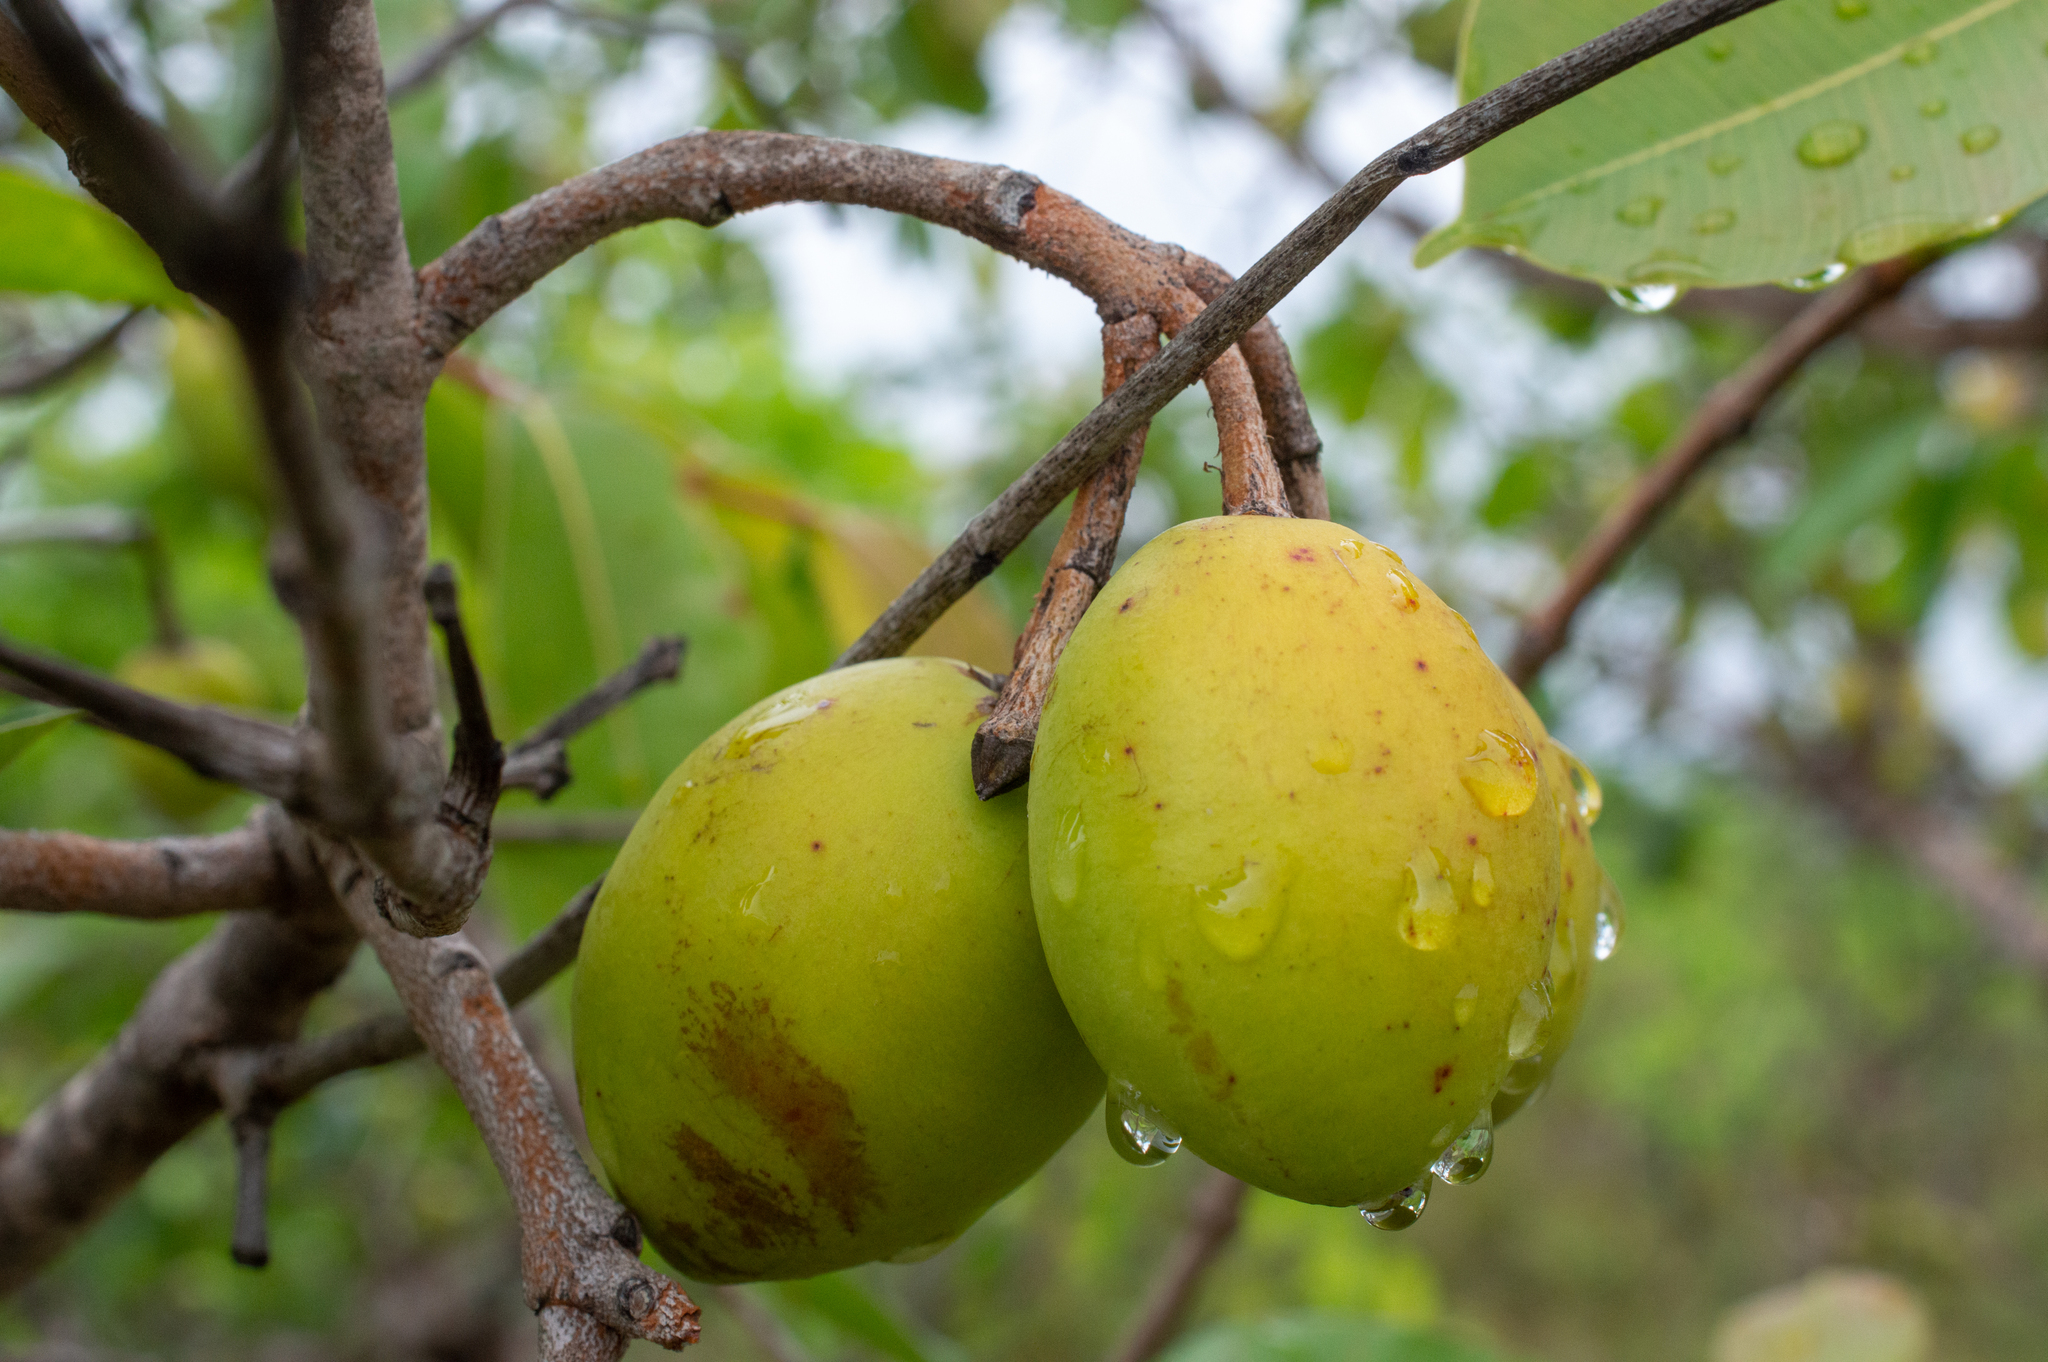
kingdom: Plantae
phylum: Tracheophyta
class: Magnoliopsida
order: Gentianales
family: Apocynaceae
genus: Hancornia
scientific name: Hancornia speciosa
